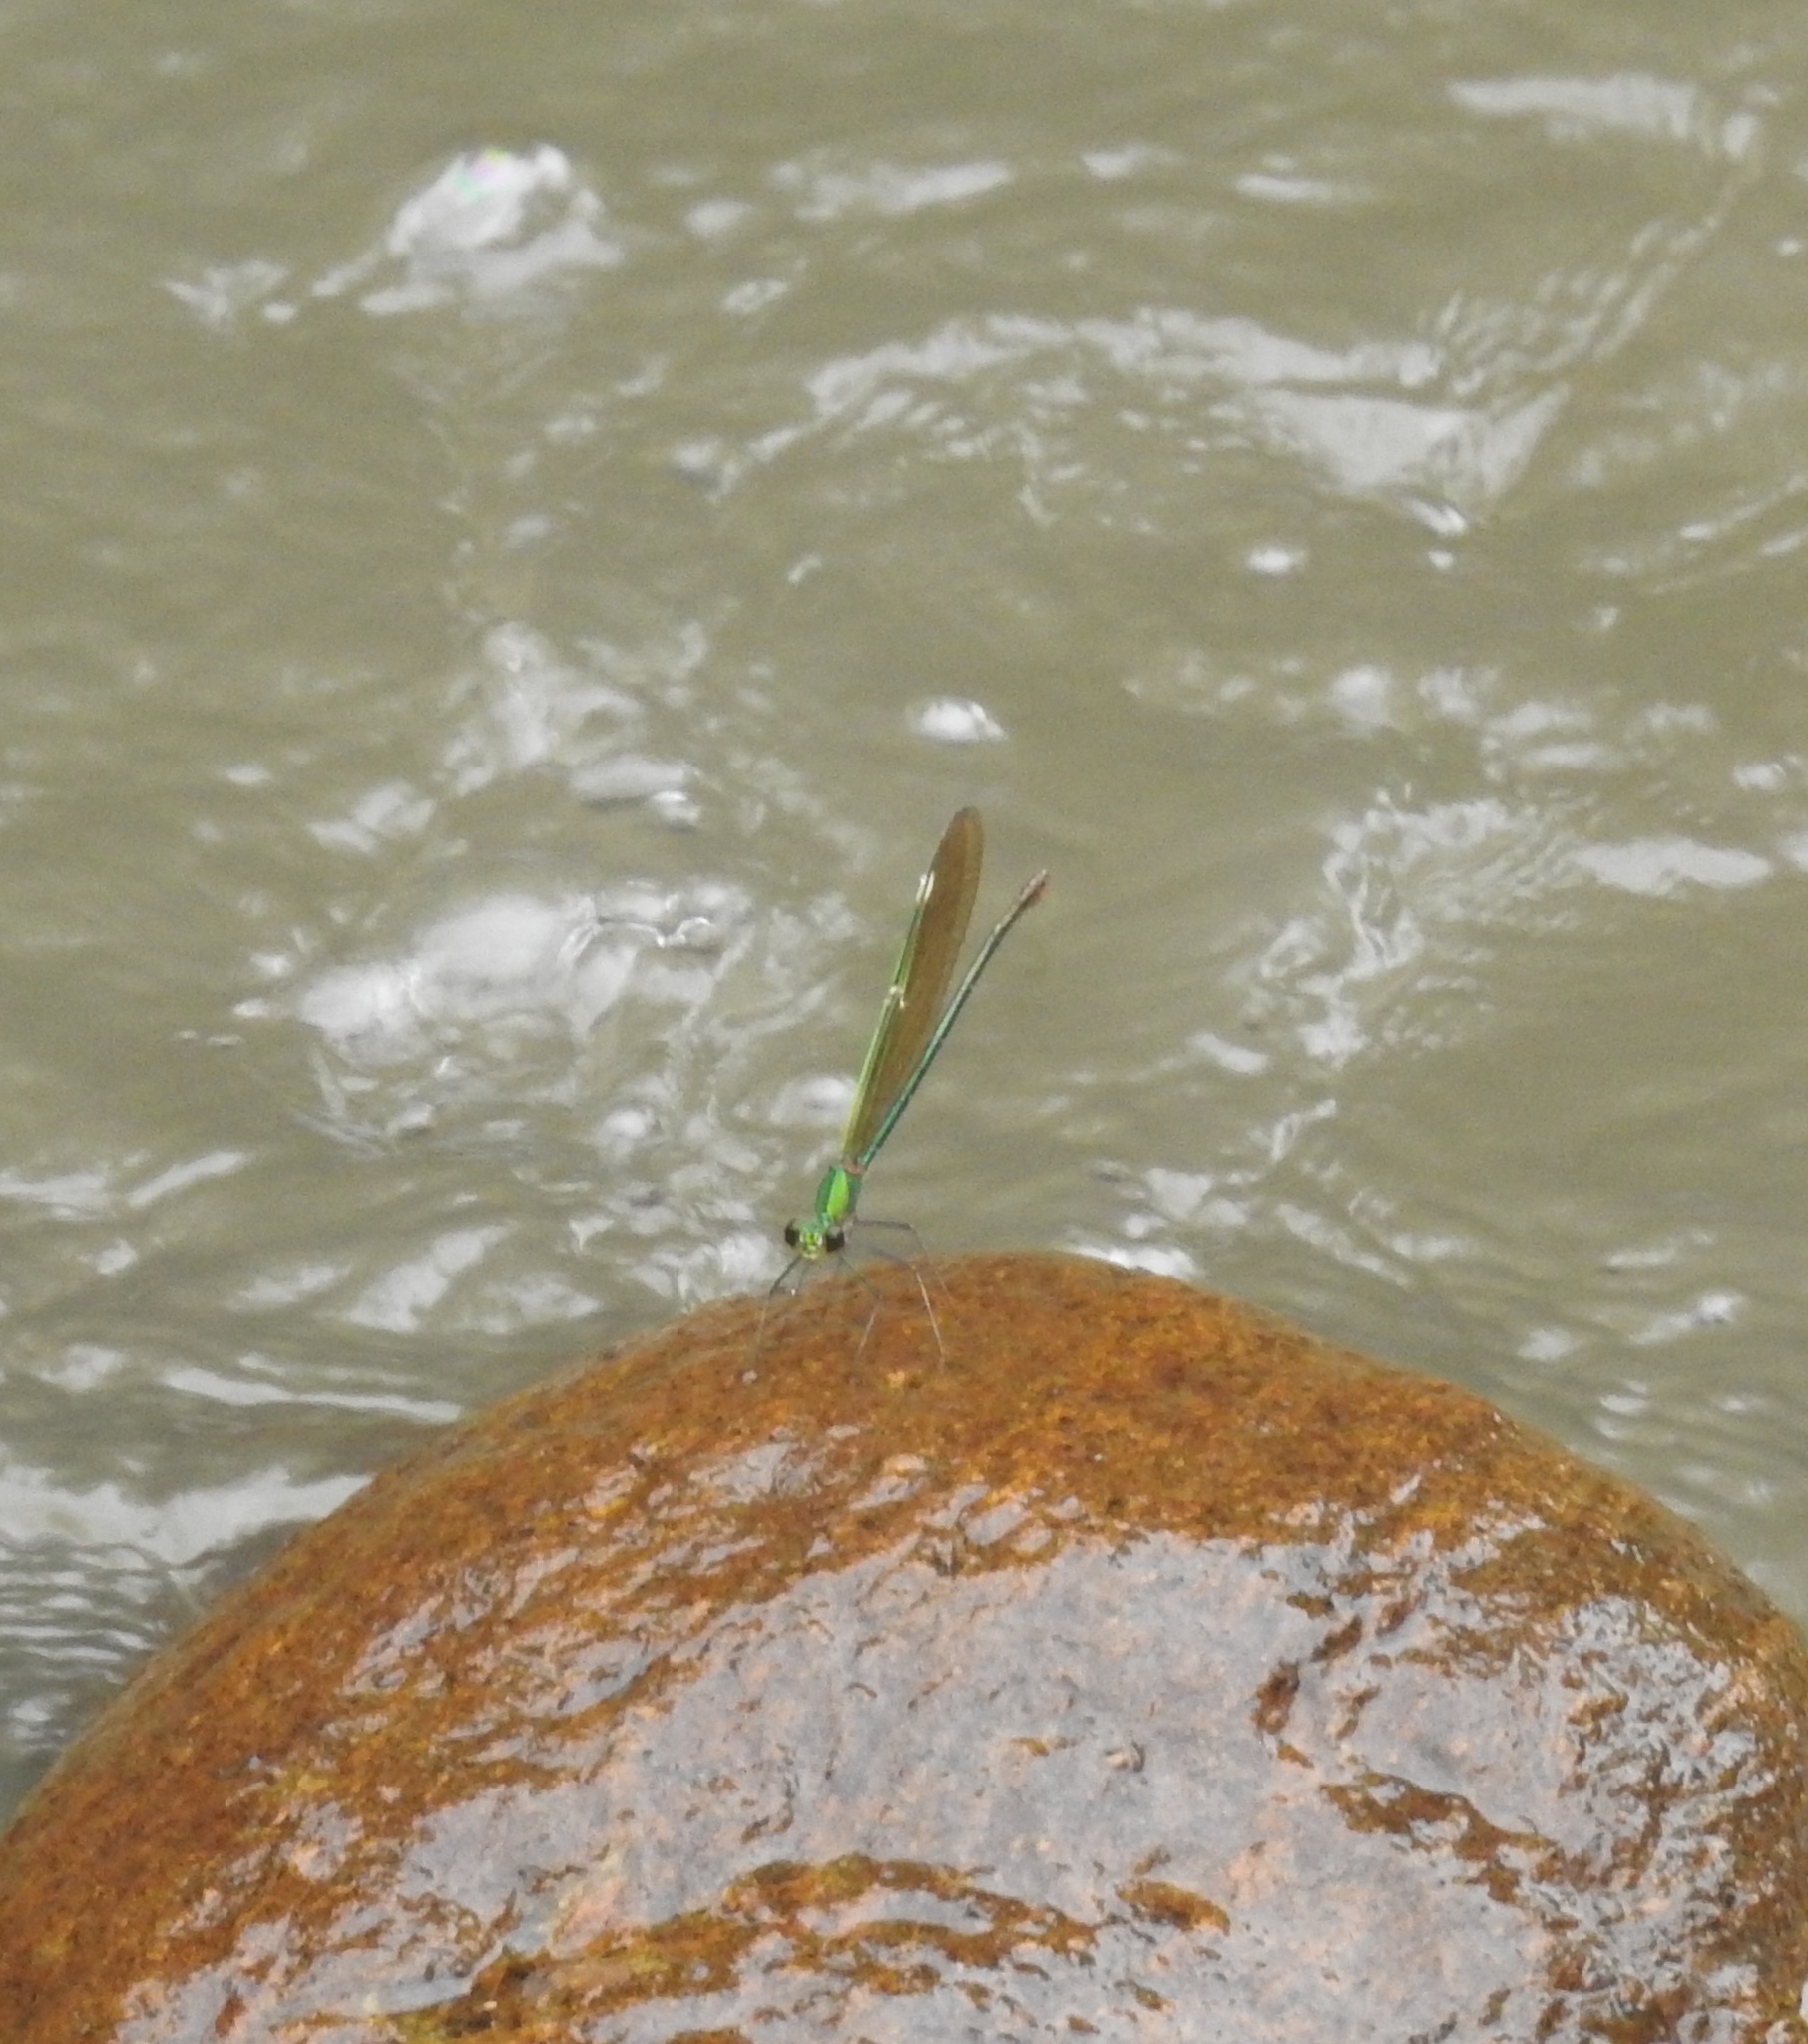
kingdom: Animalia
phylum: Arthropoda
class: Insecta
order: Odonata
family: Calopterygidae
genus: Neurobasis
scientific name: Neurobasis chinensis
